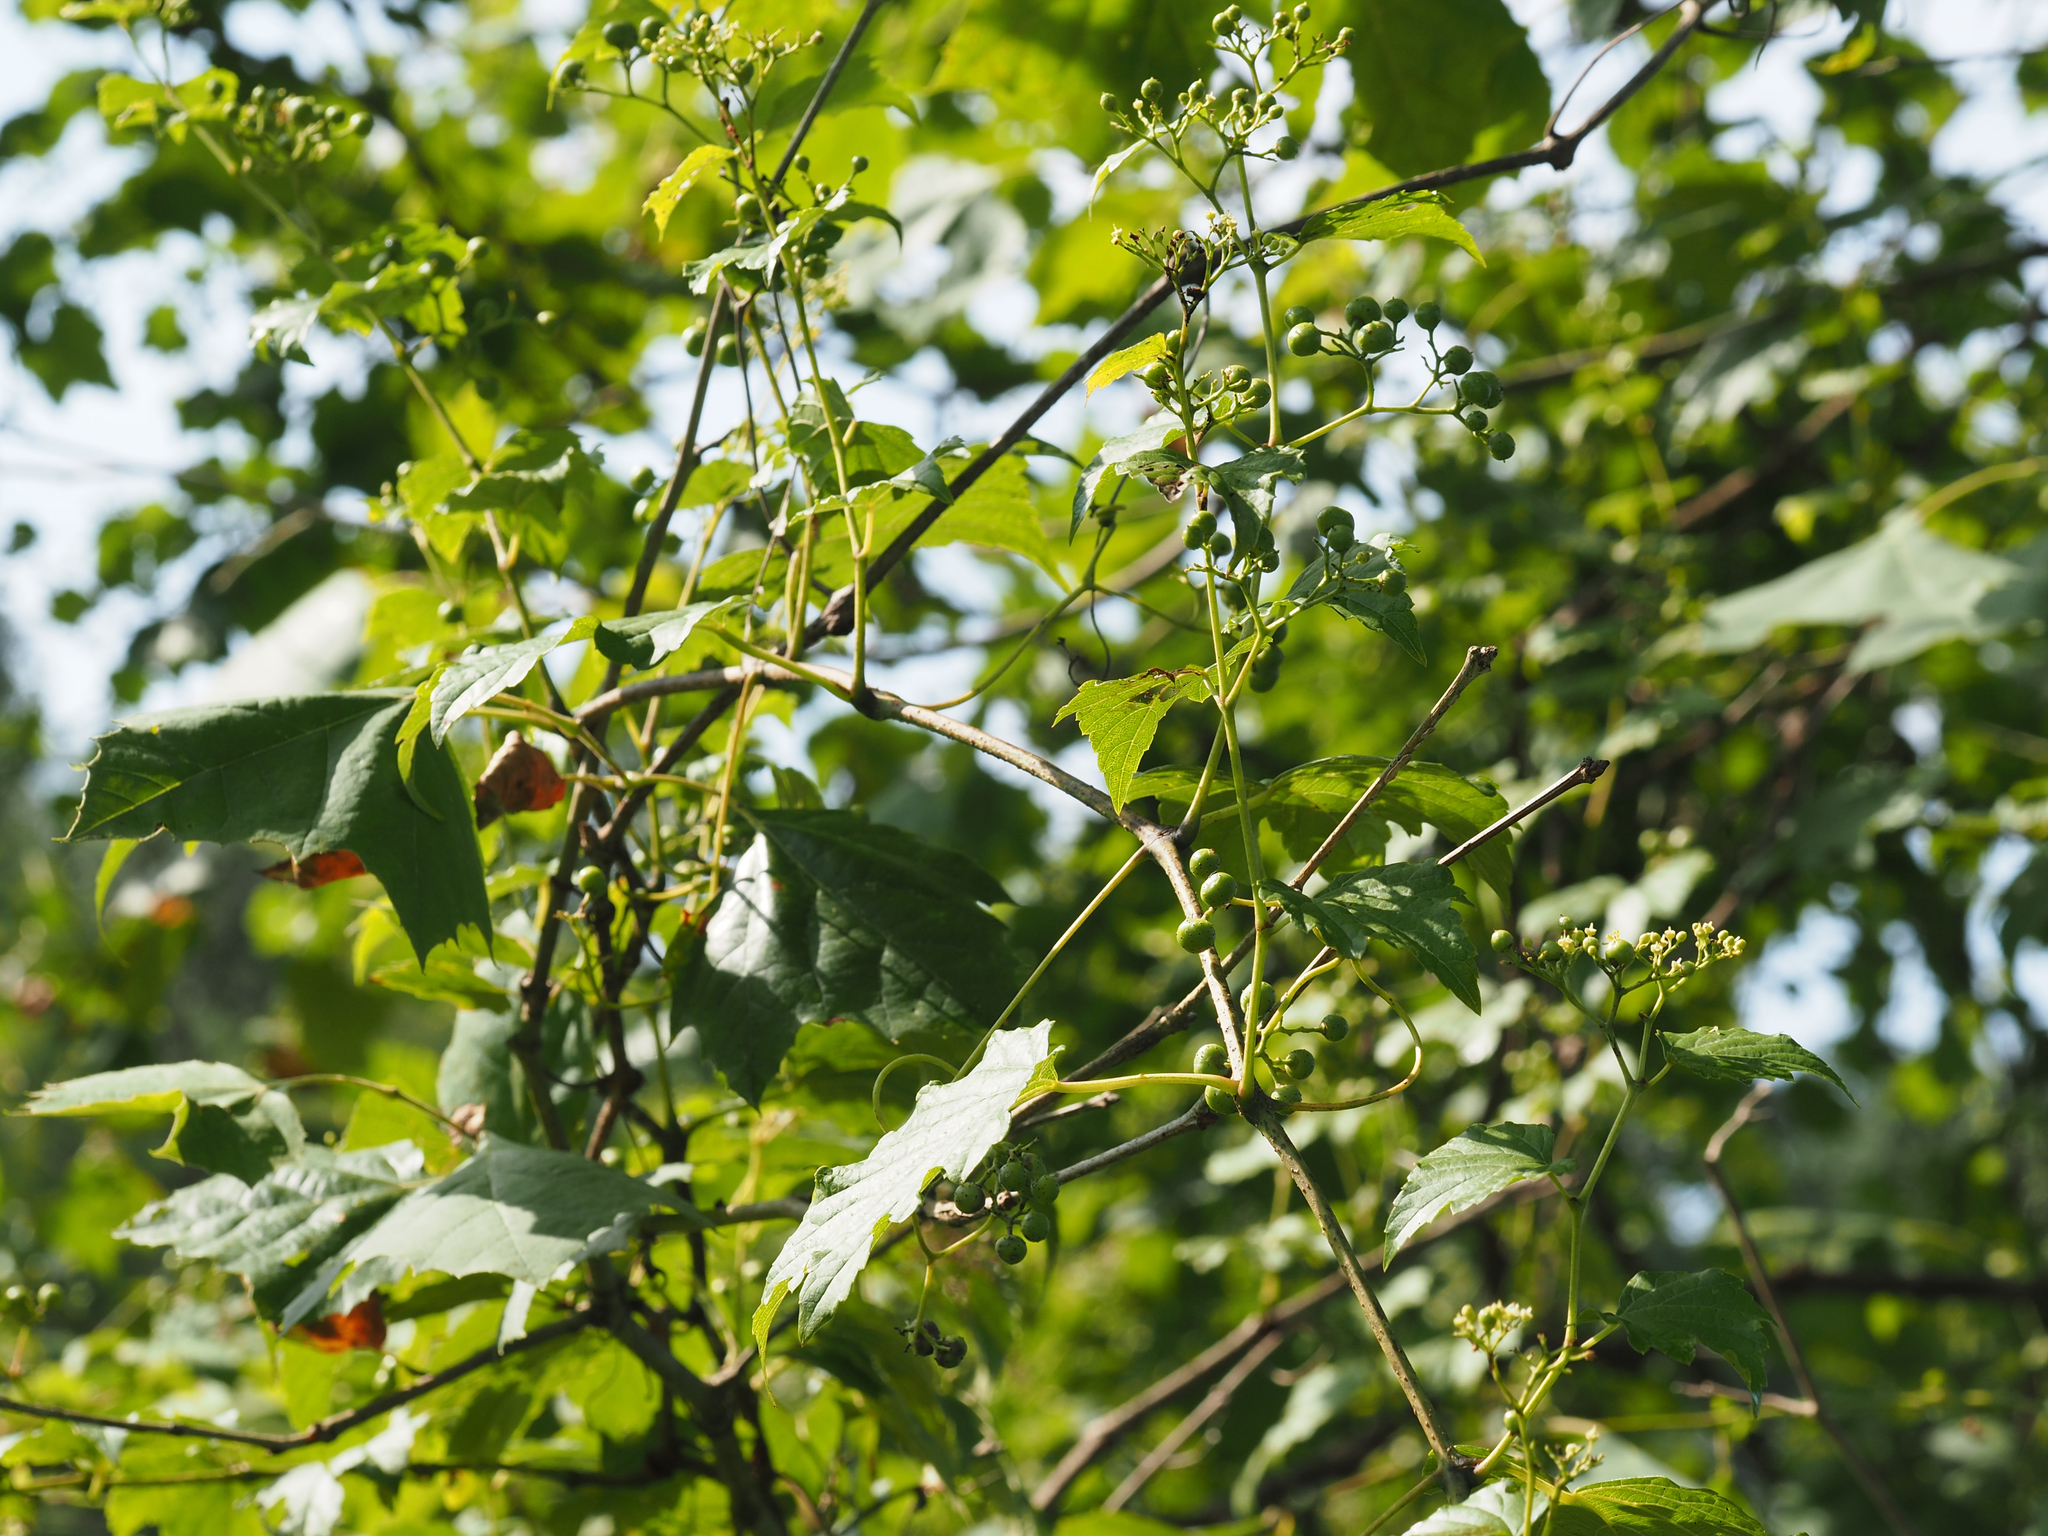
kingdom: Plantae
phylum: Tracheophyta
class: Magnoliopsida
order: Vitales
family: Vitaceae
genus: Ampelopsis
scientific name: Ampelopsis glandulosa
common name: Amur peppervine
